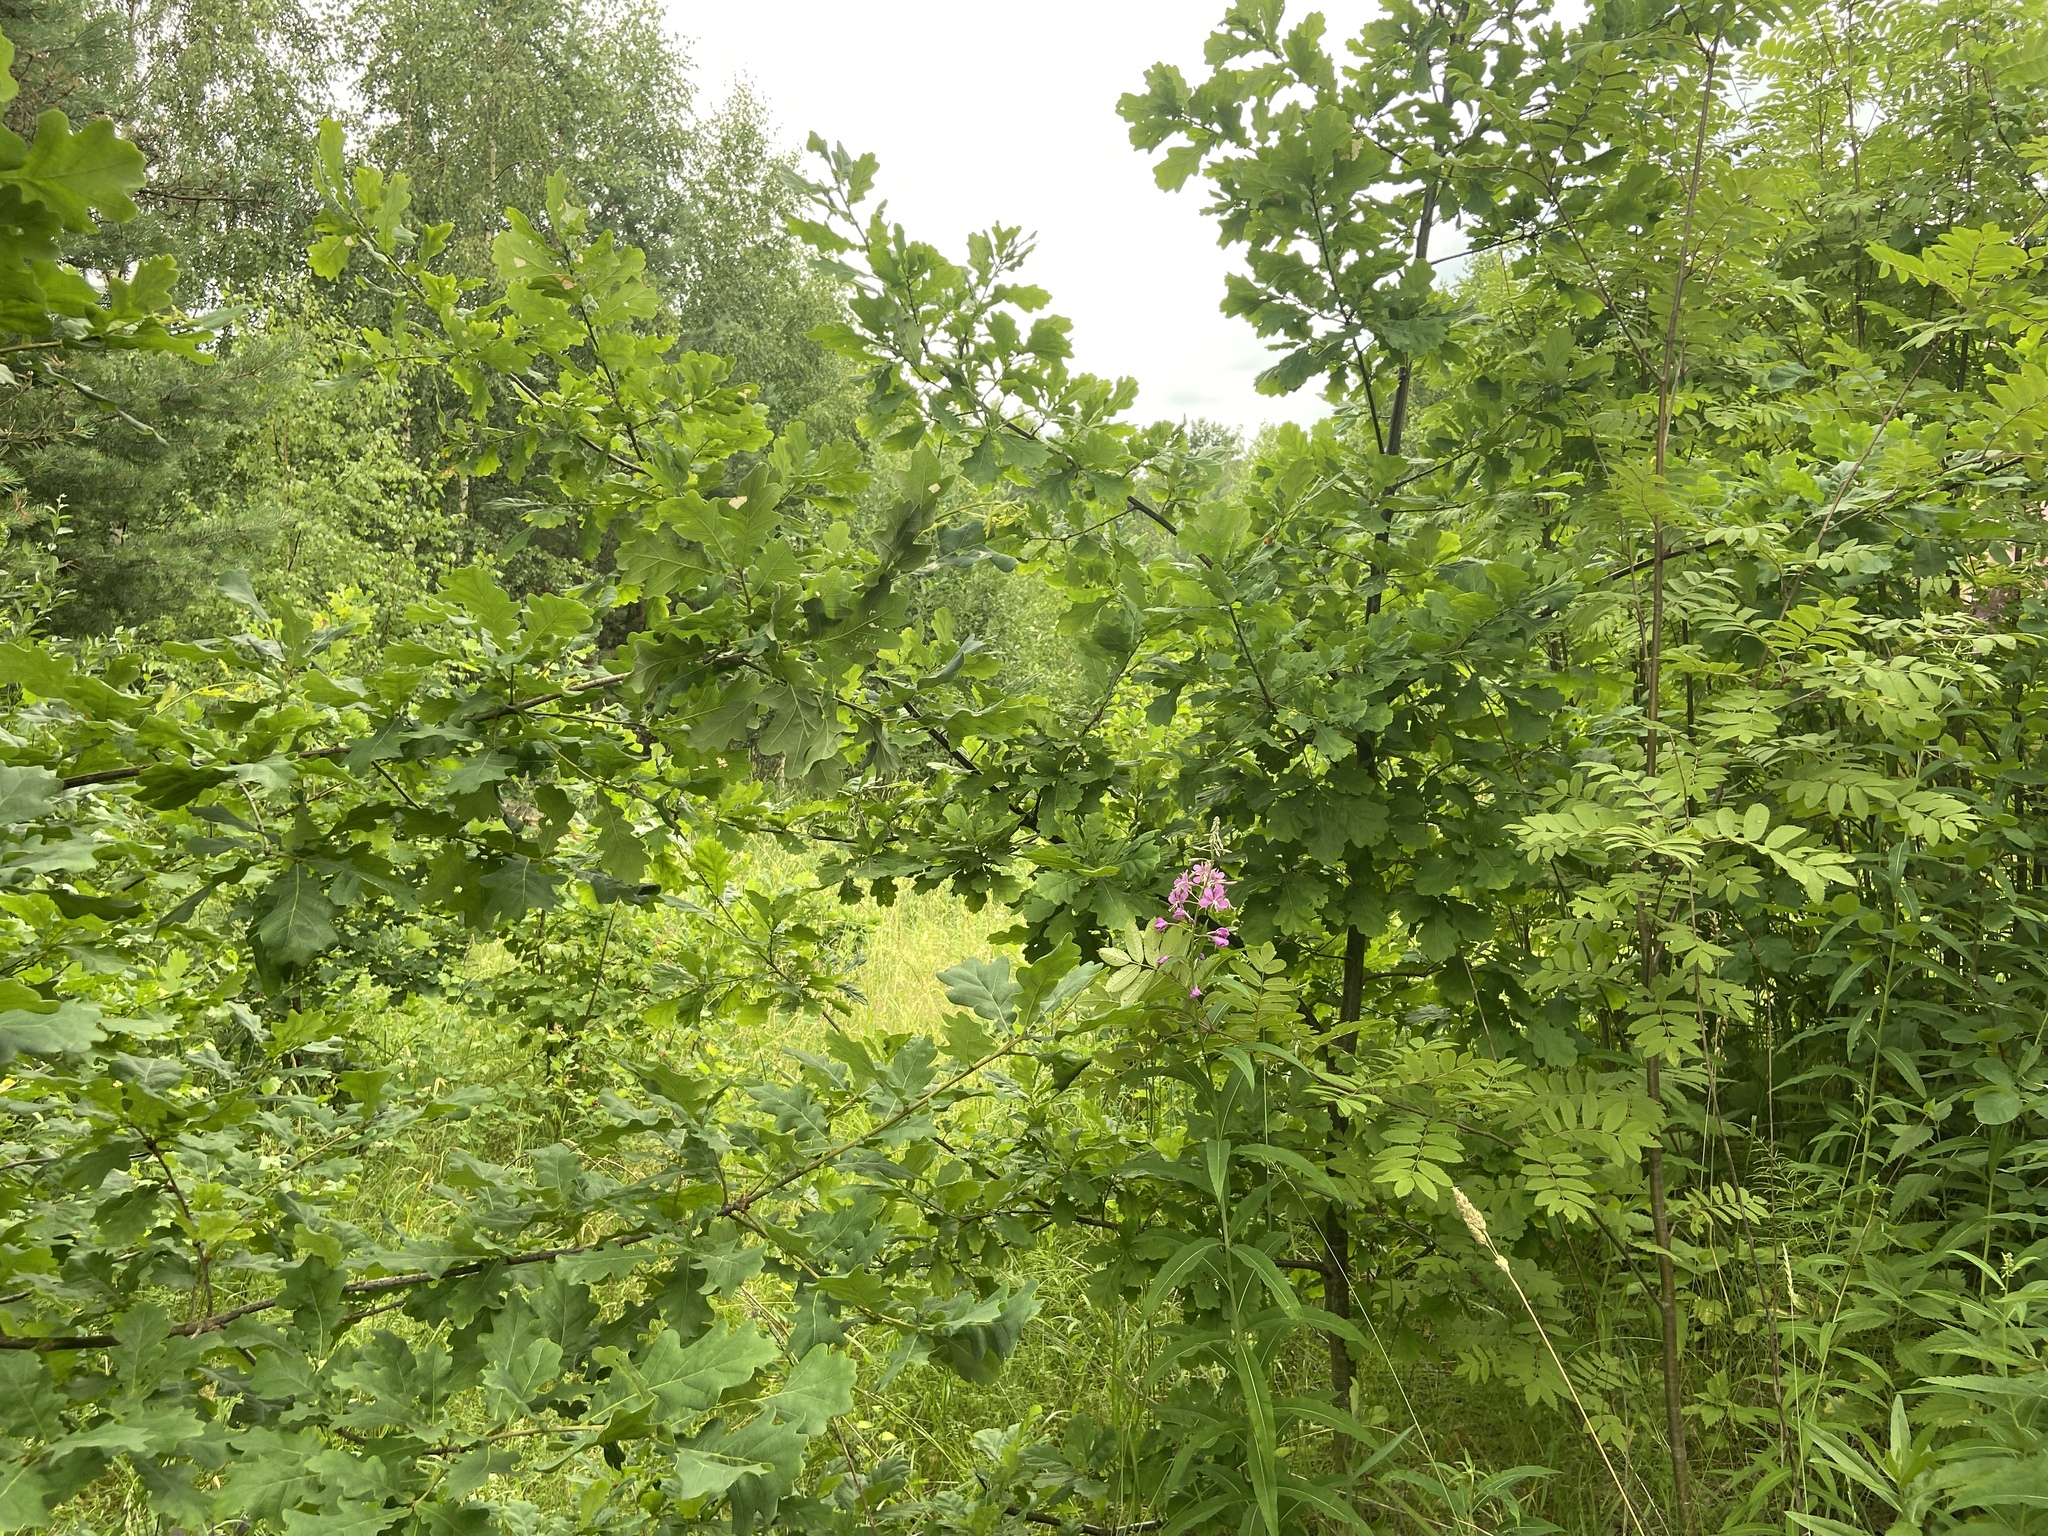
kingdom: Plantae
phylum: Tracheophyta
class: Magnoliopsida
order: Fagales
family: Fagaceae
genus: Quercus
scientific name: Quercus robur
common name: Pedunculate oak
